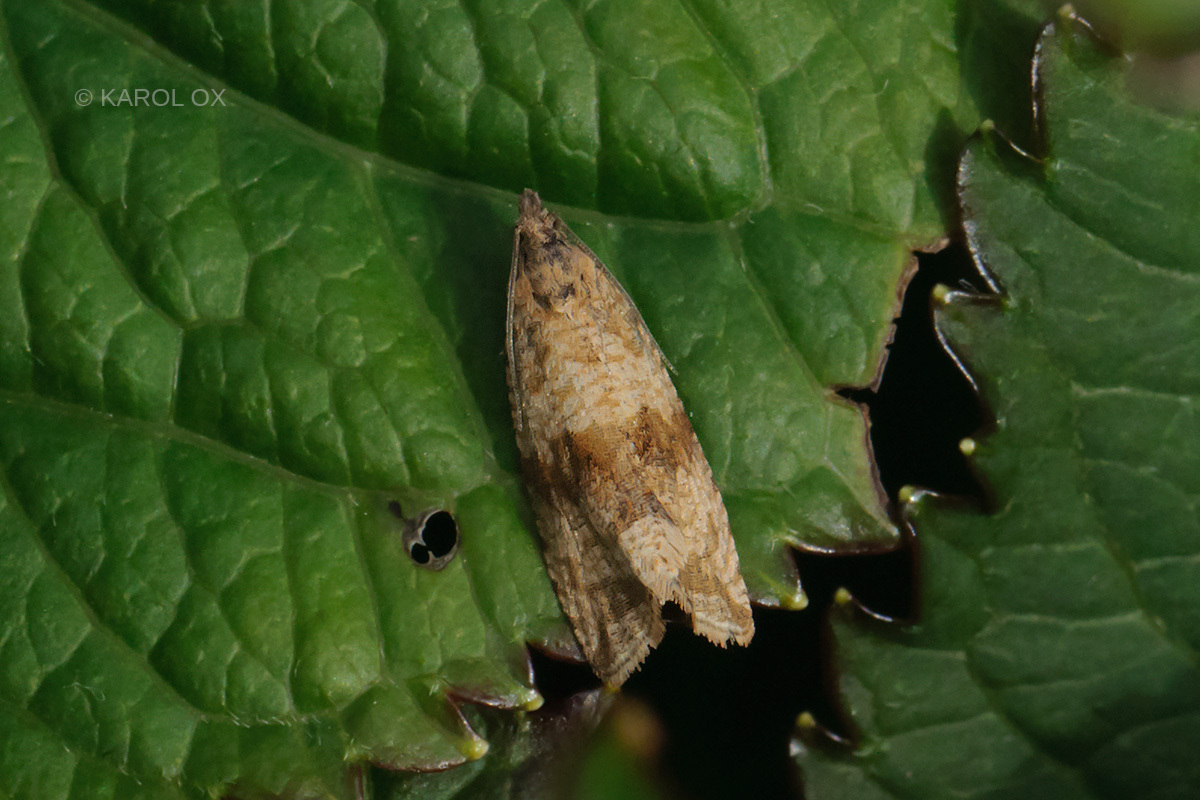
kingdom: Animalia
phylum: Arthropoda
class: Insecta
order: Lepidoptera
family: Tortricidae
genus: Celypha
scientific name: Celypha striana
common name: Barred marble
